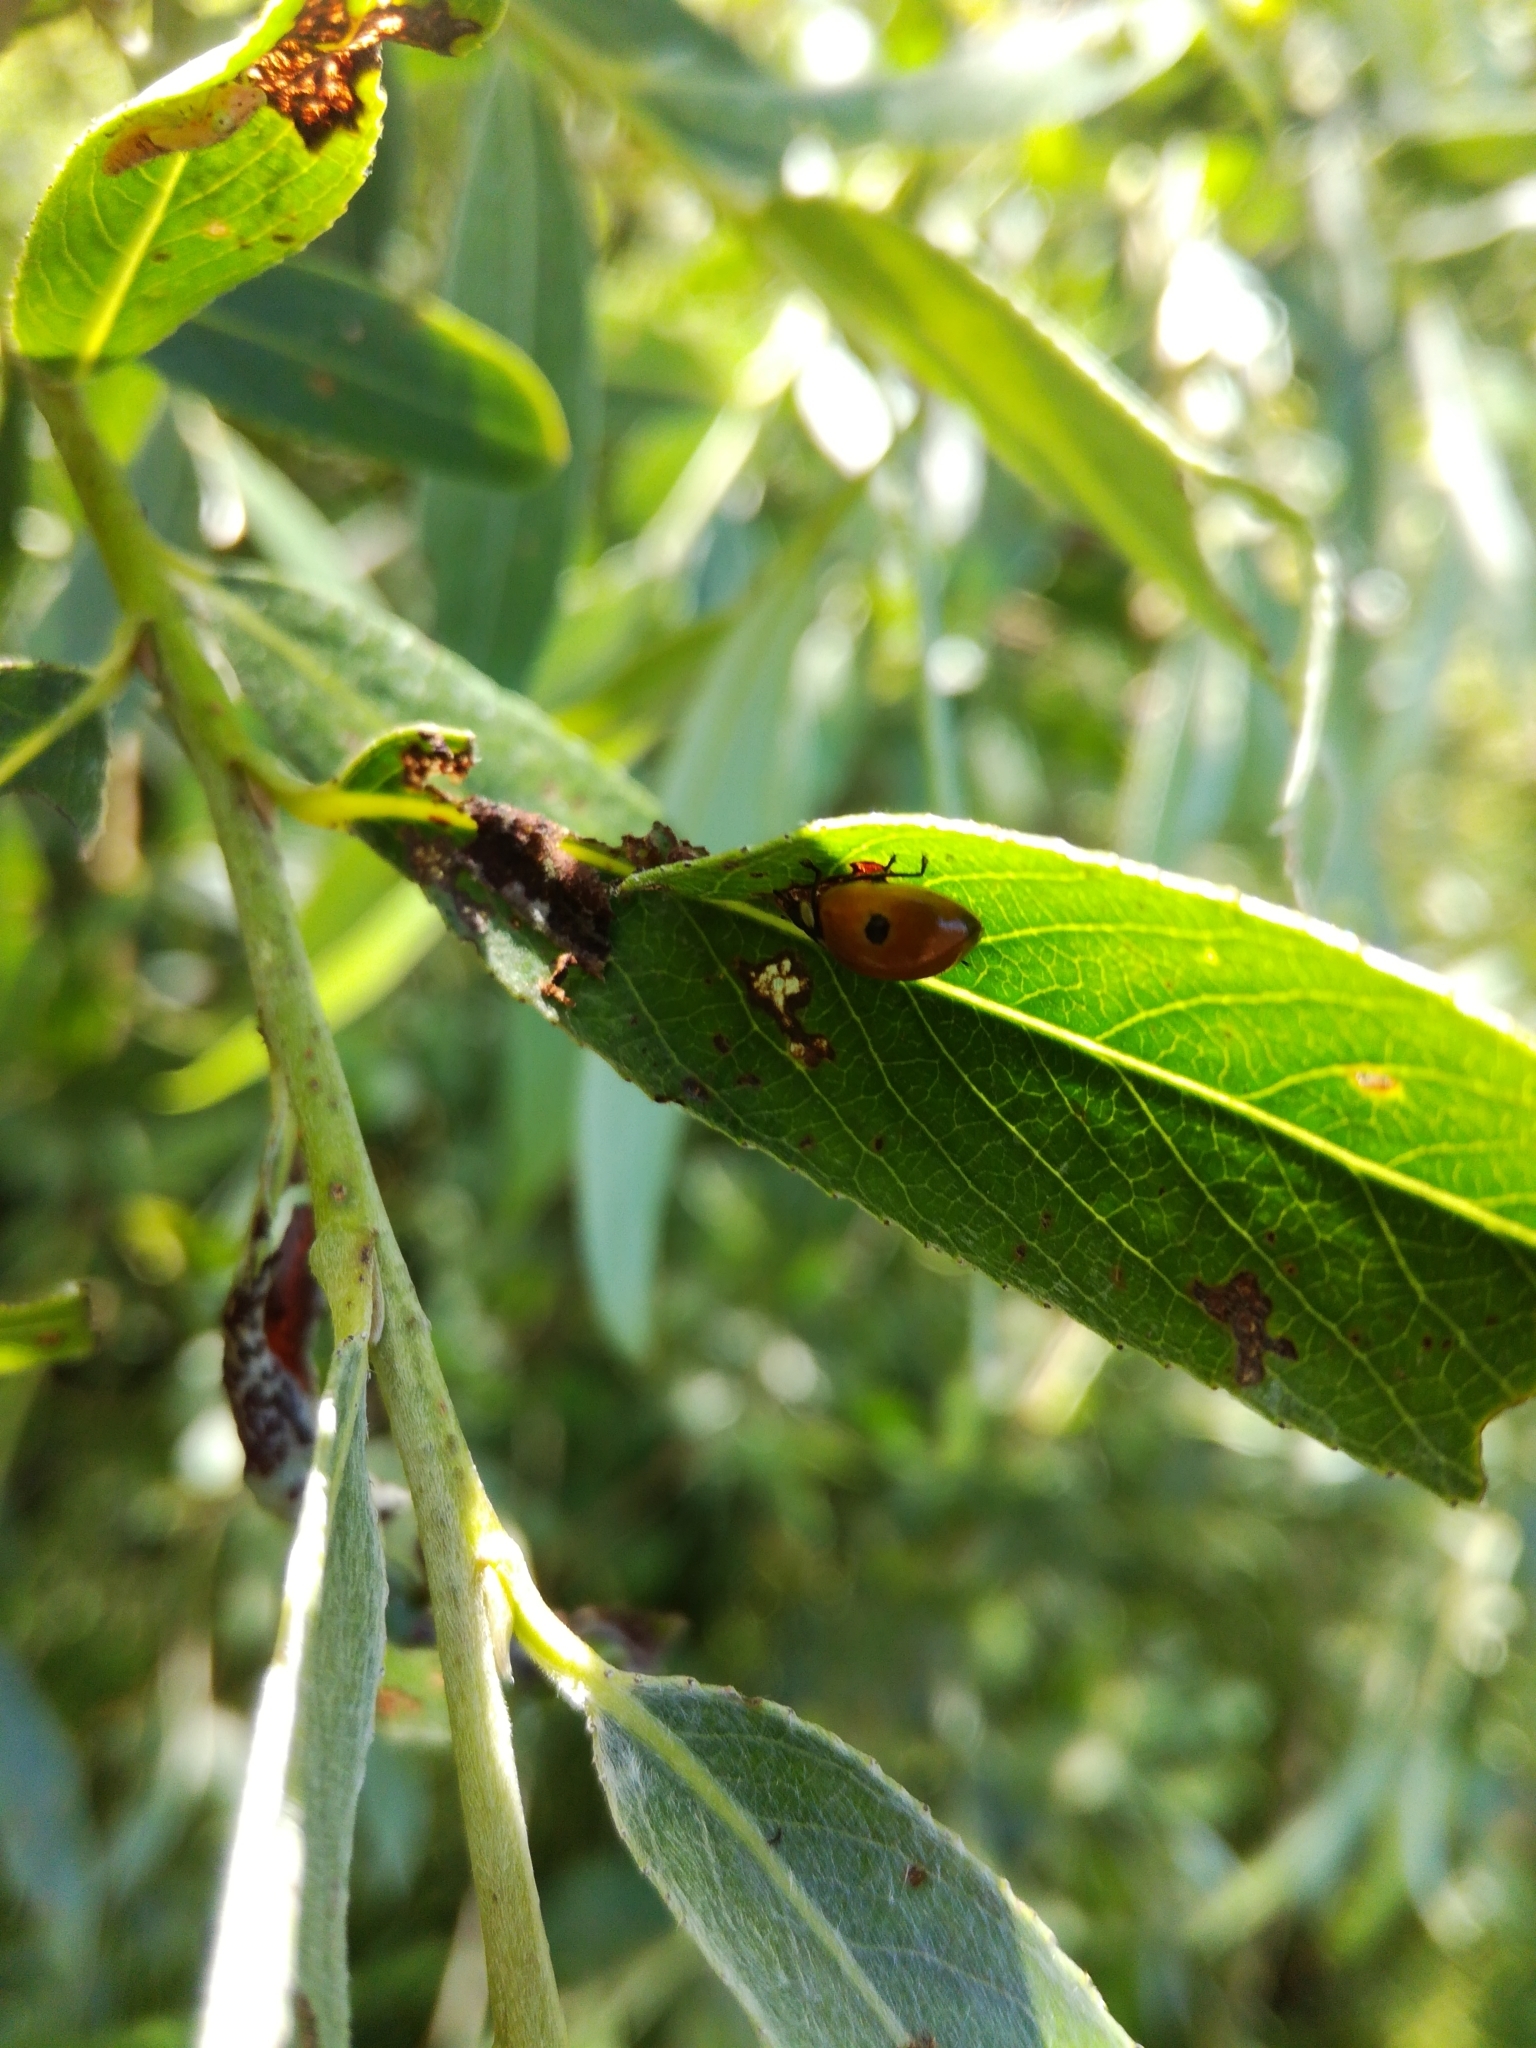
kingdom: Animalia
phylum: Arthropoda
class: Insecta
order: Coleoptera
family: Coccinellidae
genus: Adalia
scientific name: Adalia bipunctata
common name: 2-spot ladybird
